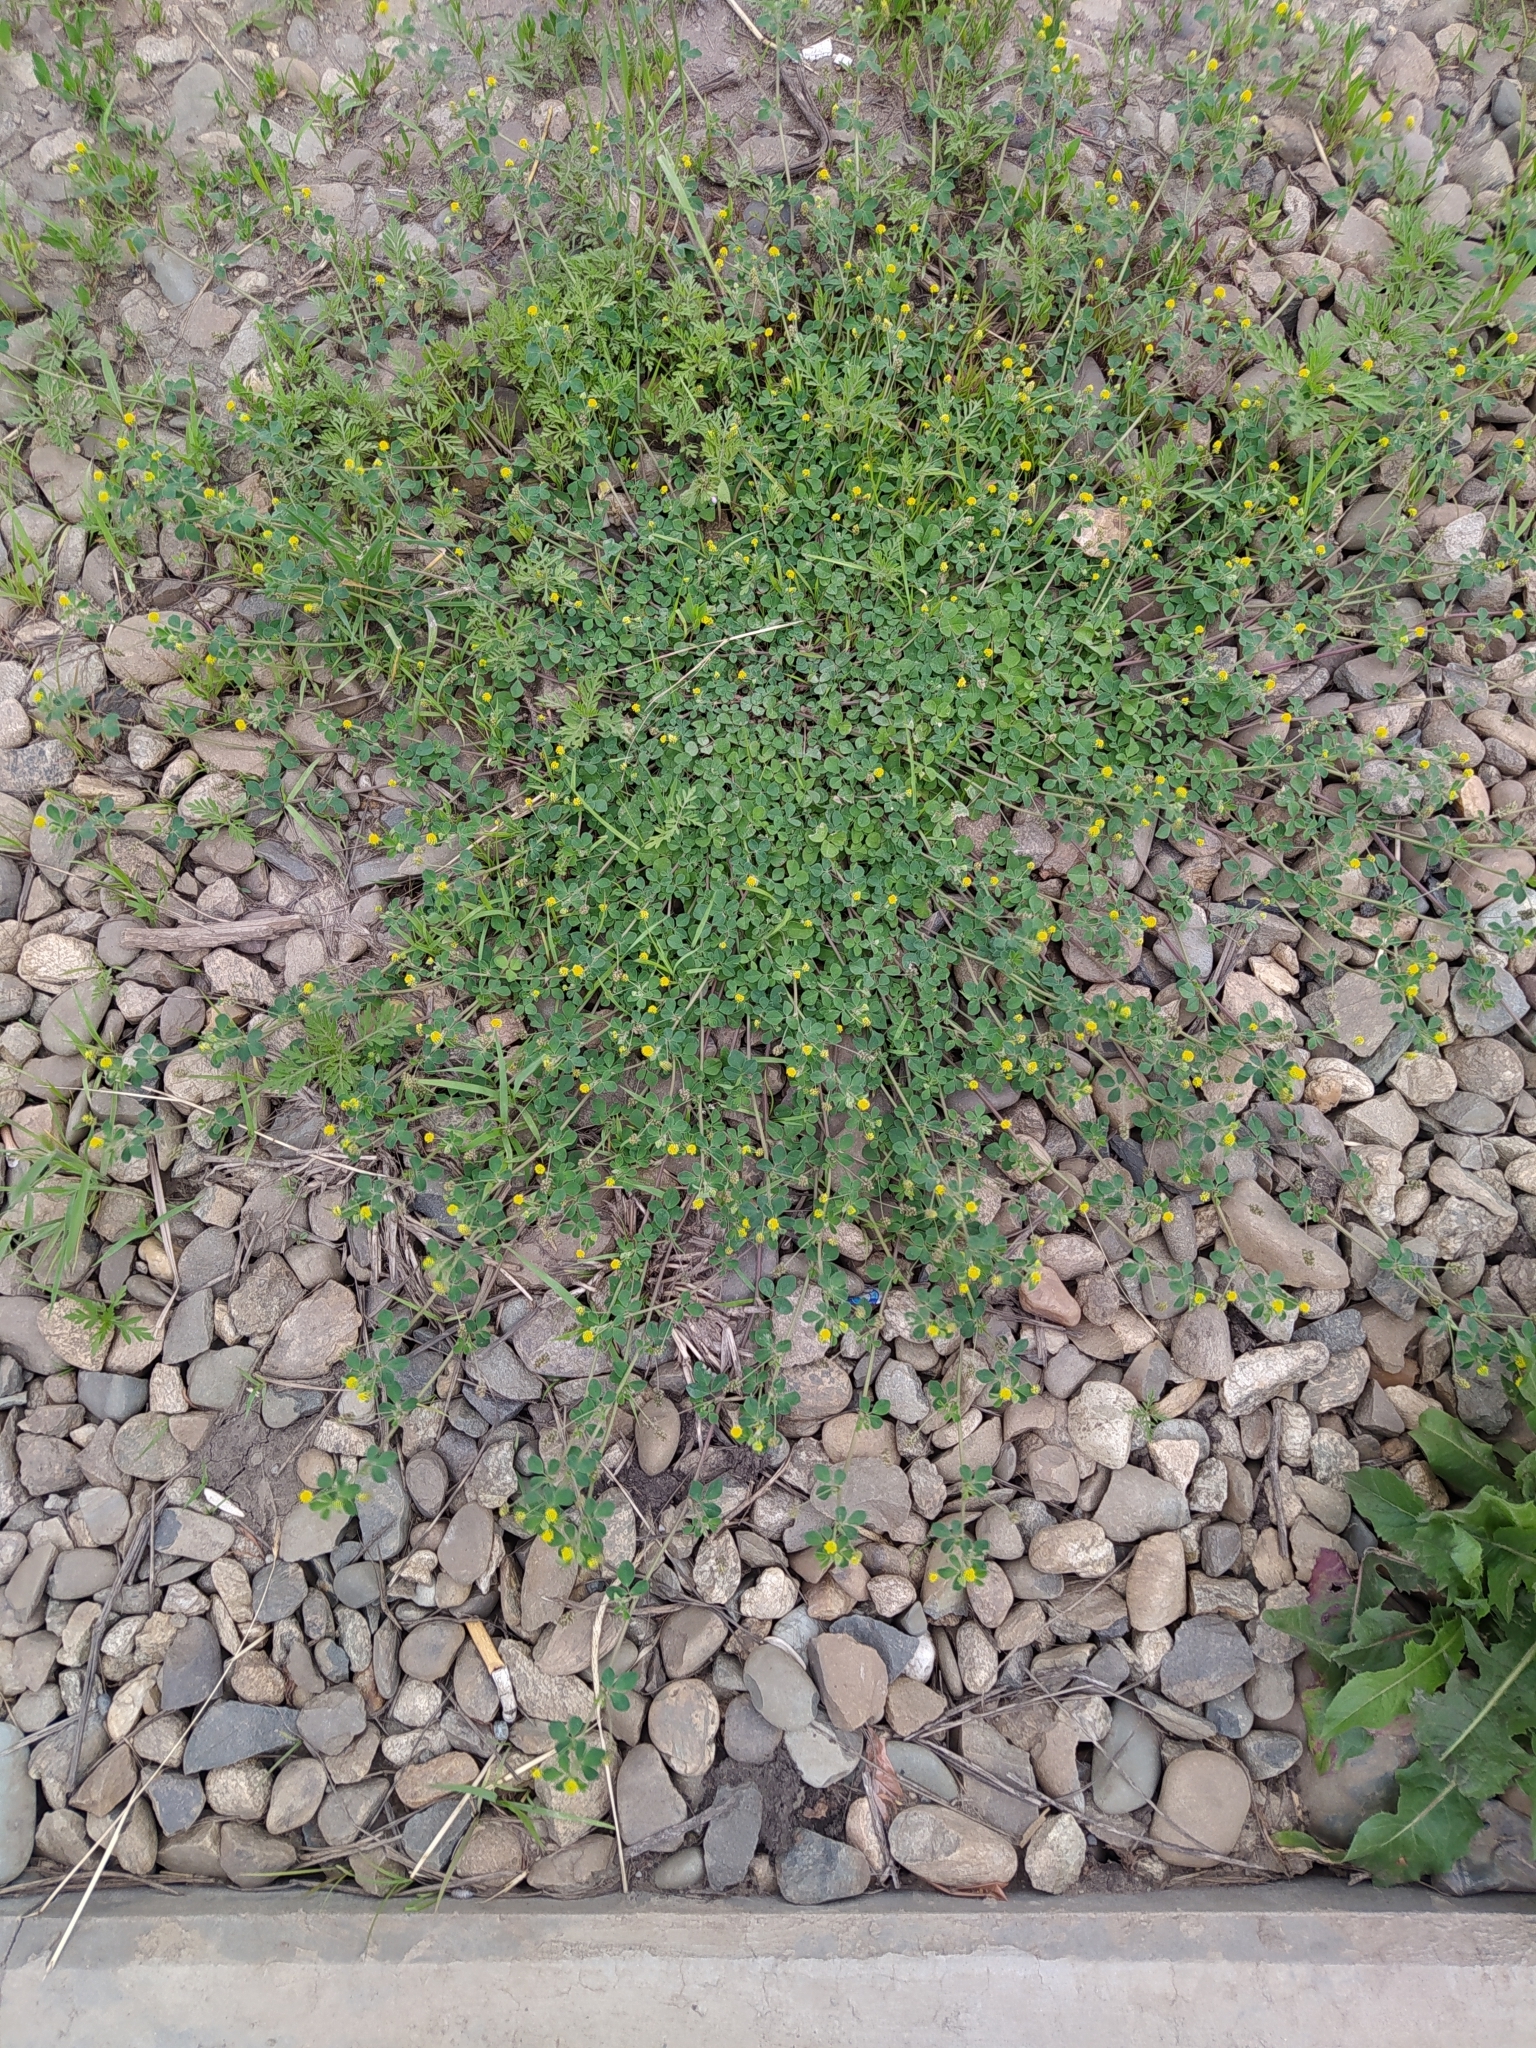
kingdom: Plantae
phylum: Tracheophyta
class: Magnoliopsida
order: Fabales
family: Fabaceae
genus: Medicago
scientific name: Medicago lupulina
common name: Black medick
